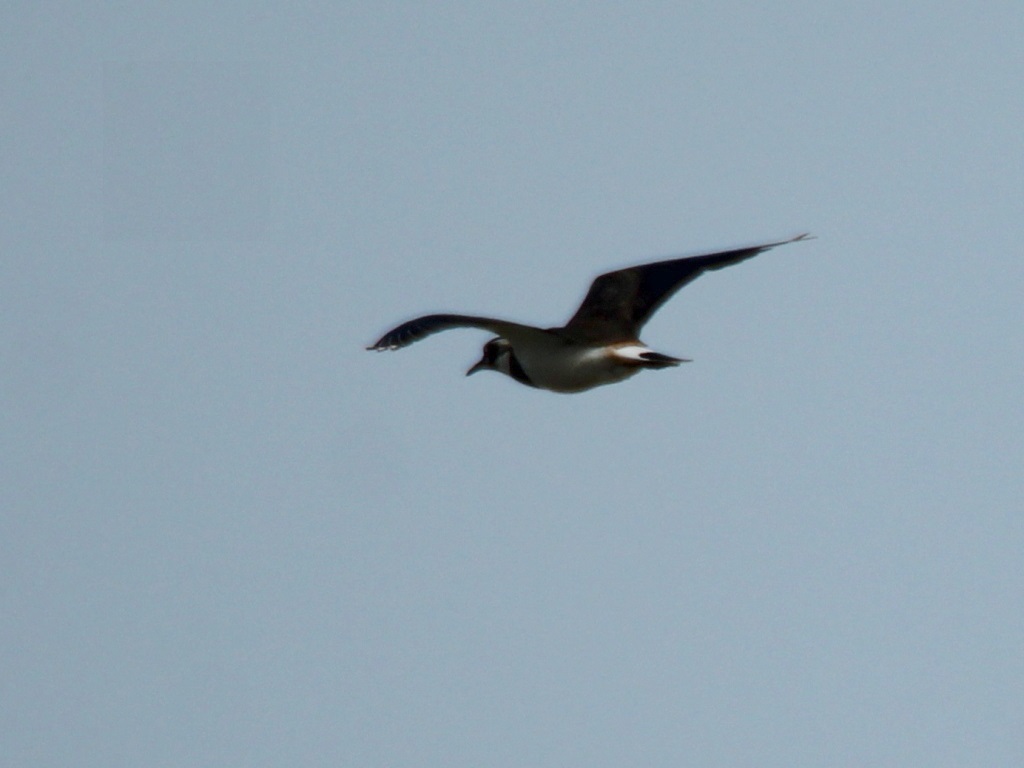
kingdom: Animalia
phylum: Chordata
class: Aves
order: Charadriiformes
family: Charadriidae
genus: Vanellus
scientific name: Vanellus vanellus
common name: Northern lapwing
